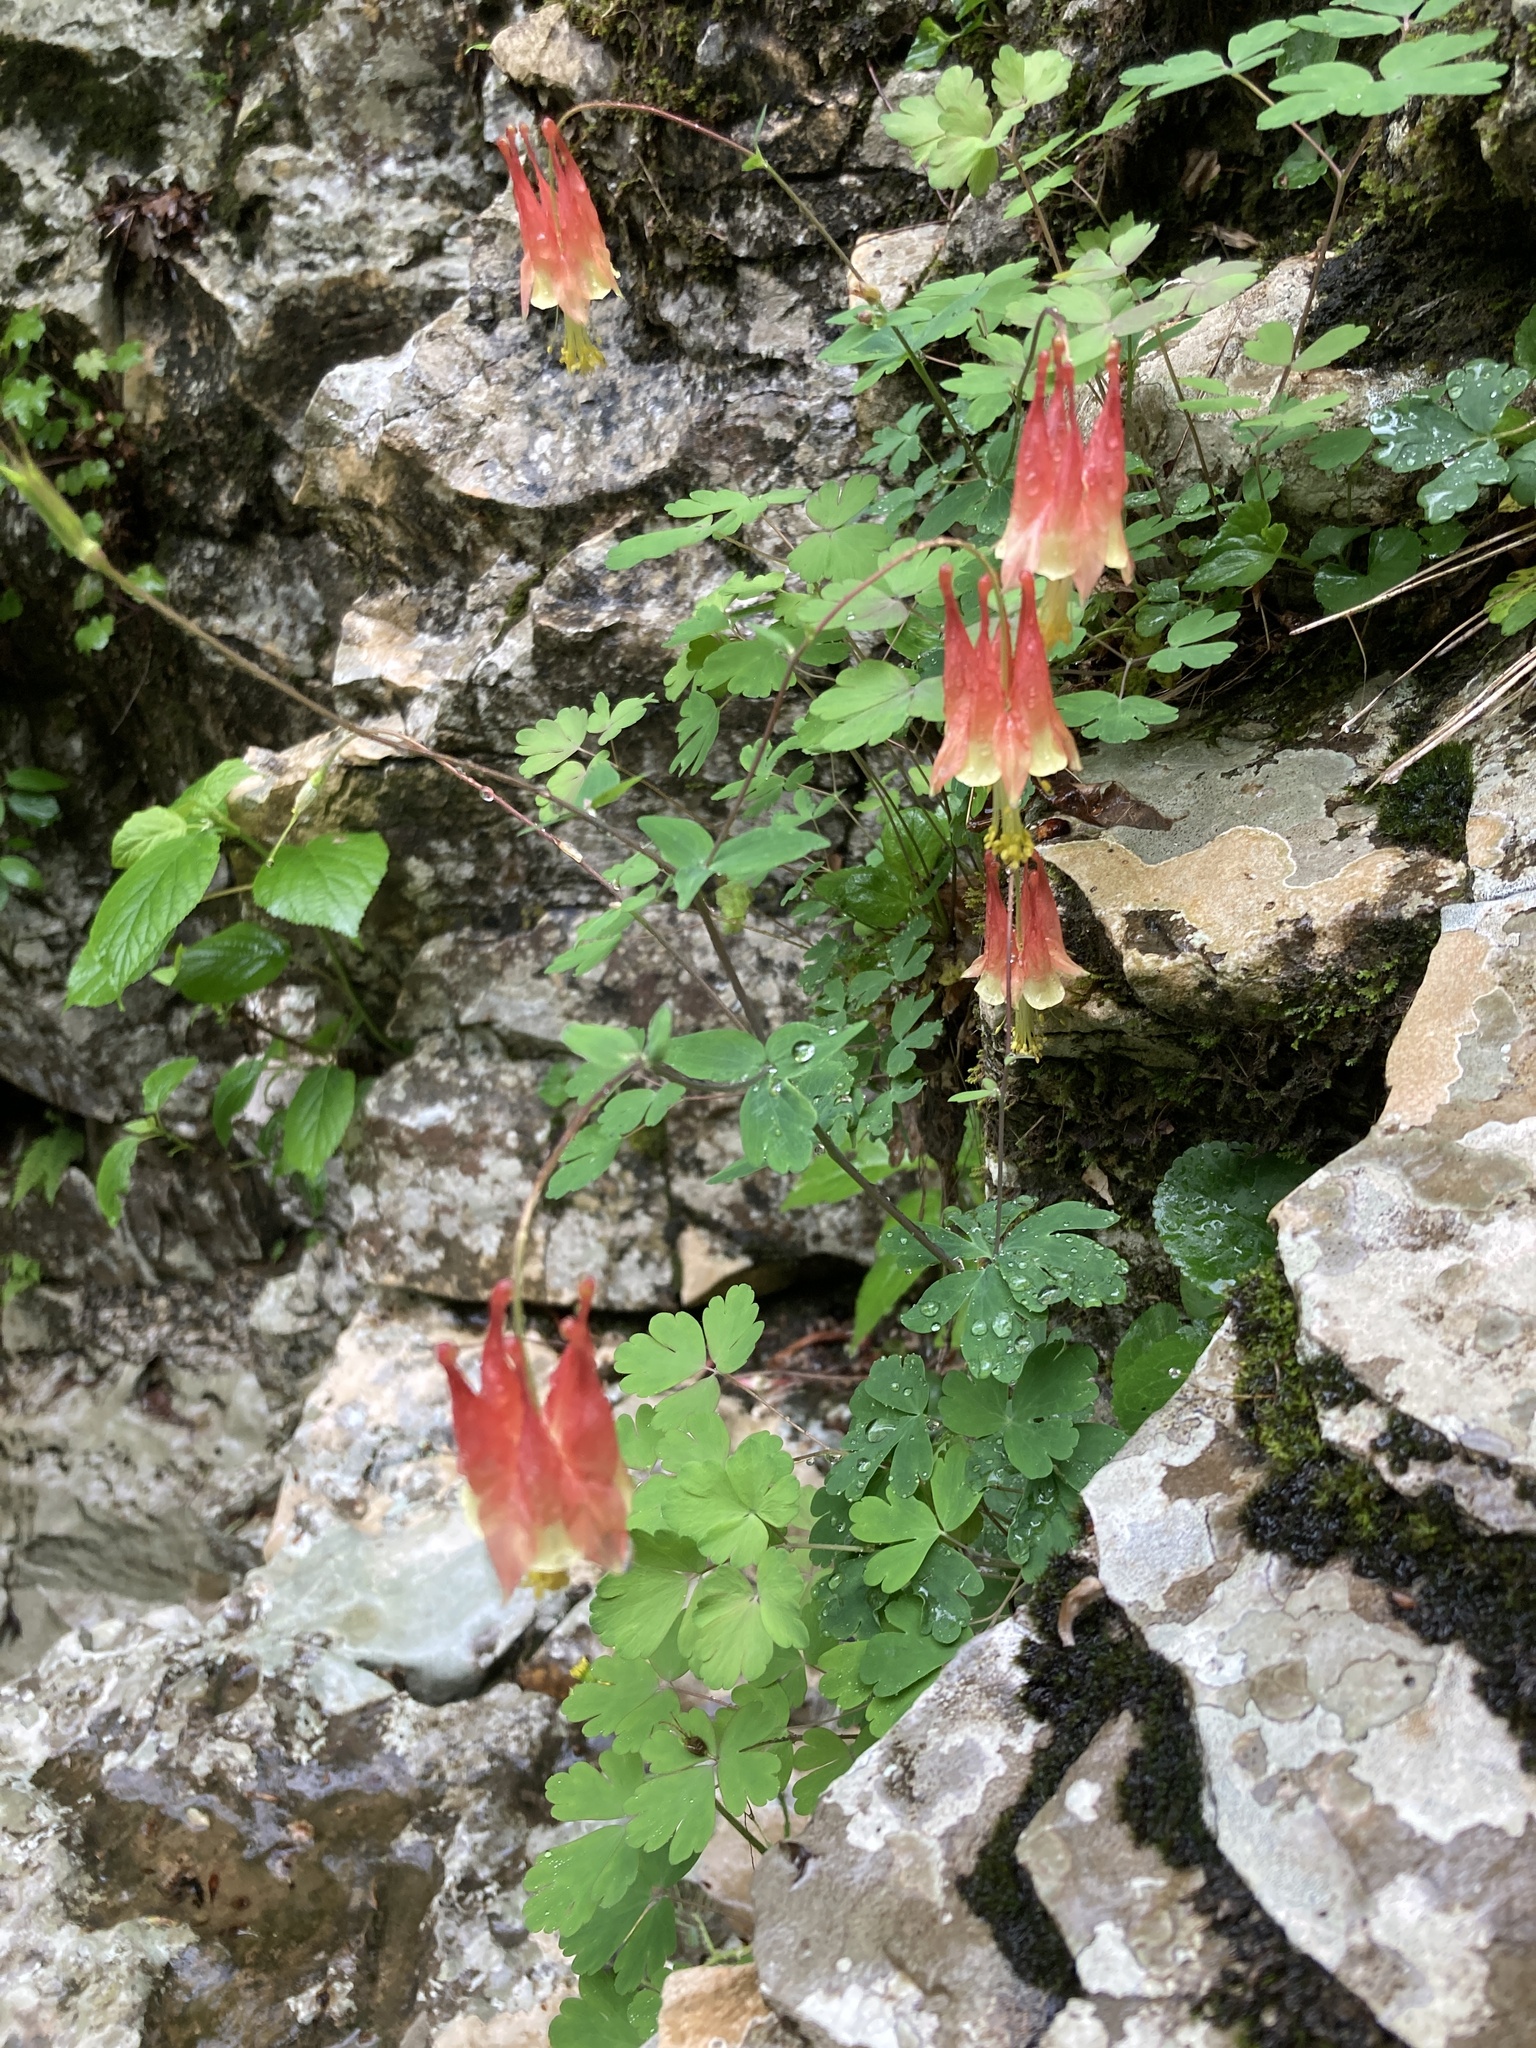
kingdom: Plantae
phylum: Tracheophyta
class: Magnoliopsida
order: Ranunculales
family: Ranunculaceae
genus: Aquilegia
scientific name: Aquilegia canadensis
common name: American columbine
